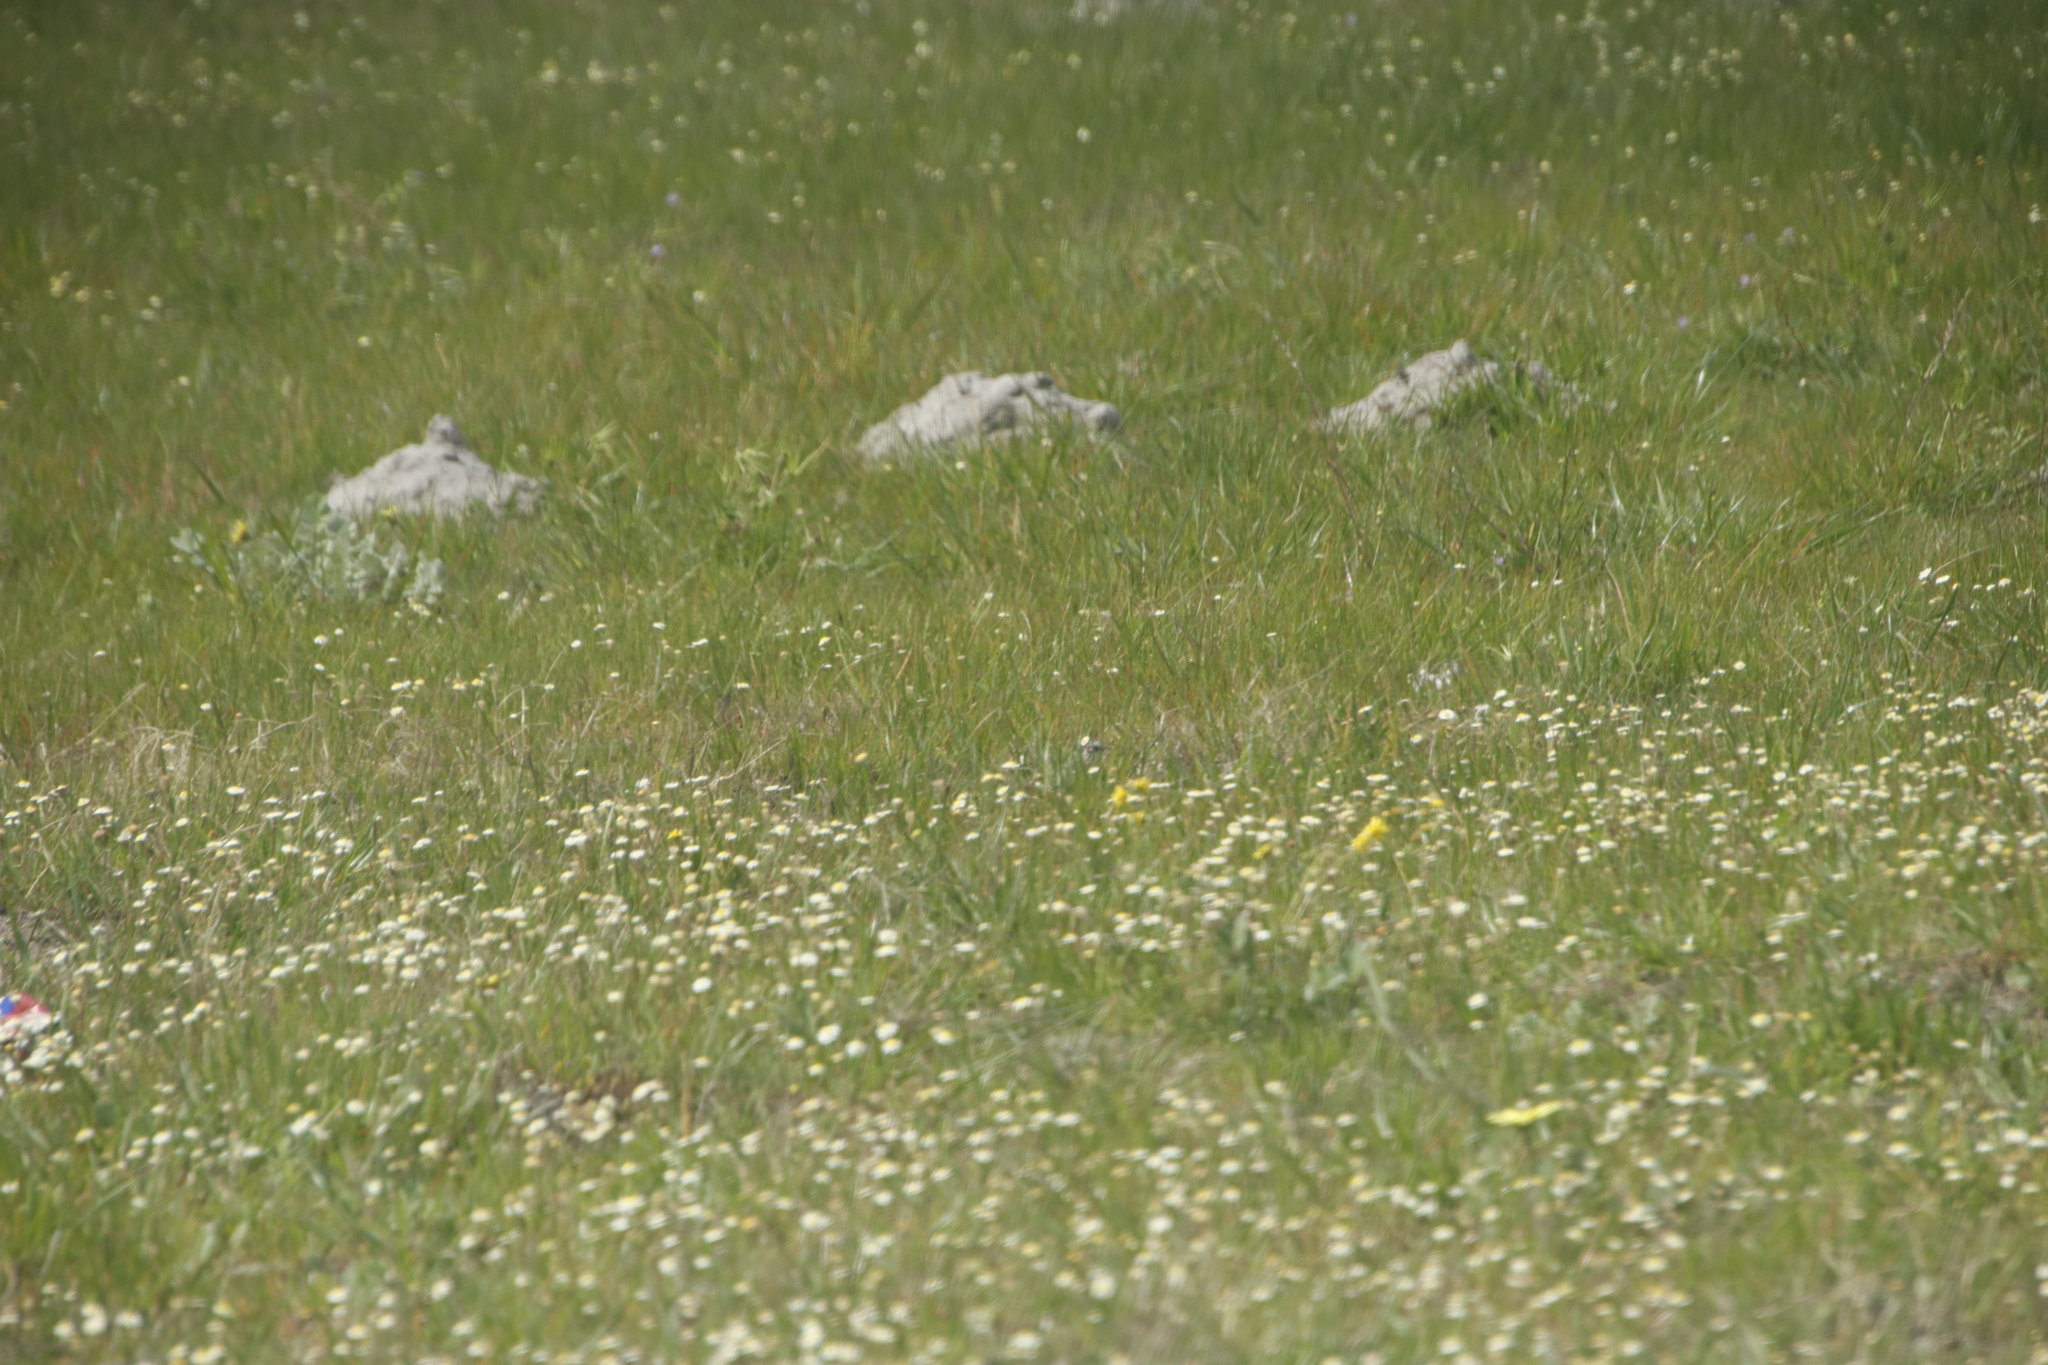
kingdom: Animalia
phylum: Chordata
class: Mammalia
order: Rodentia
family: Bathyergidae
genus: Bathyergus
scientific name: Bathyergus suillus
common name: Cape dune mole rat
